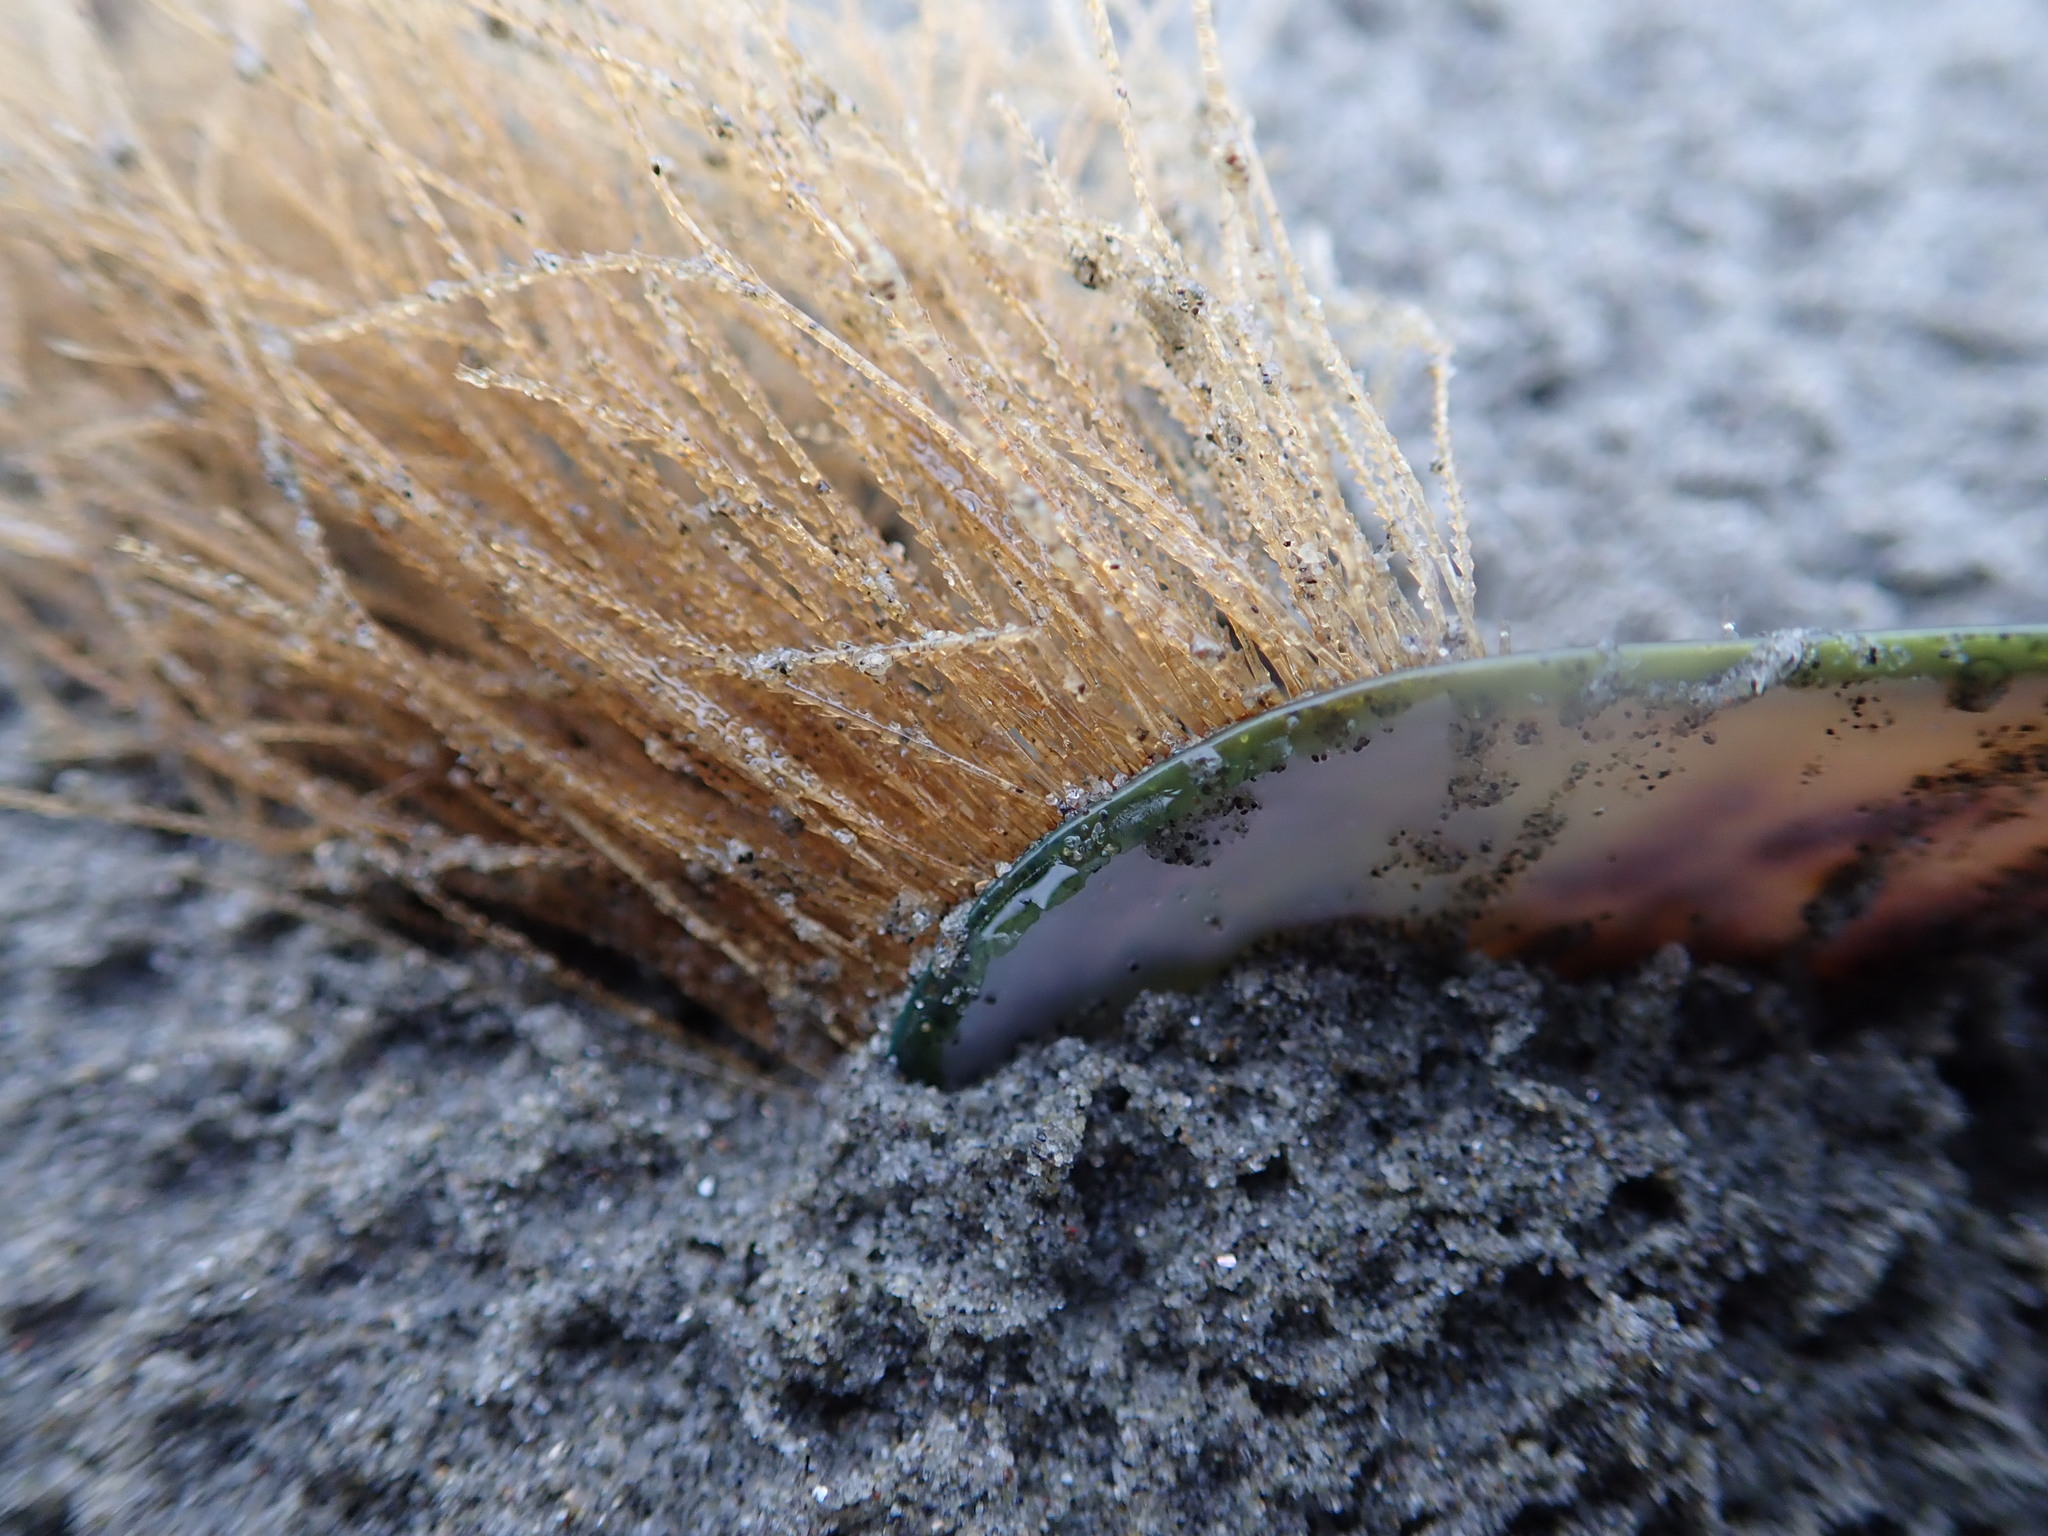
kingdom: Animalia
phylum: Cnidaria
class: Hydrozoa
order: Leptothecata
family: Sertulariidae
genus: Amphisbetia
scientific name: Amphisbetia bispinosa
